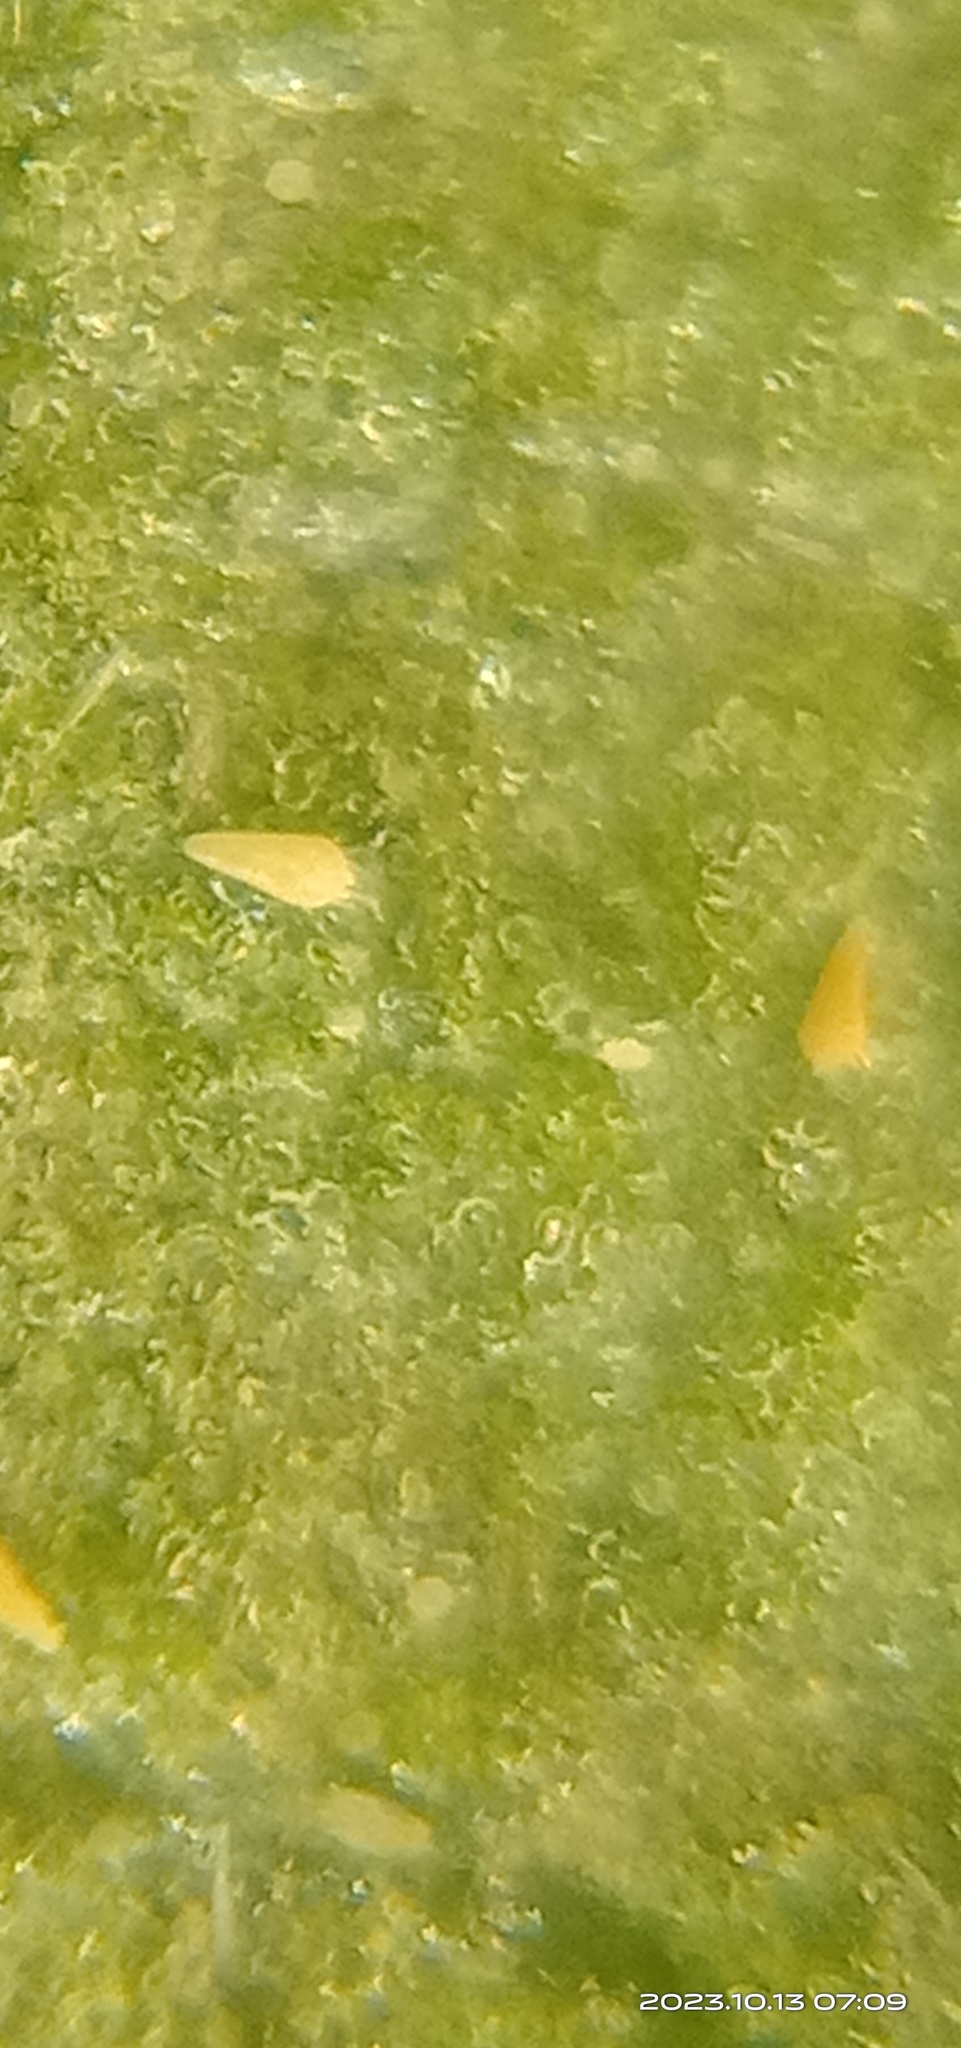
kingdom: Animalia
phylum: Arthropoda
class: Arachnida
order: Trombidiformes
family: Eriophyidae
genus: Phyllocoptruta
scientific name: Phyllocoptruta oleivora
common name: Citrus rust mite
